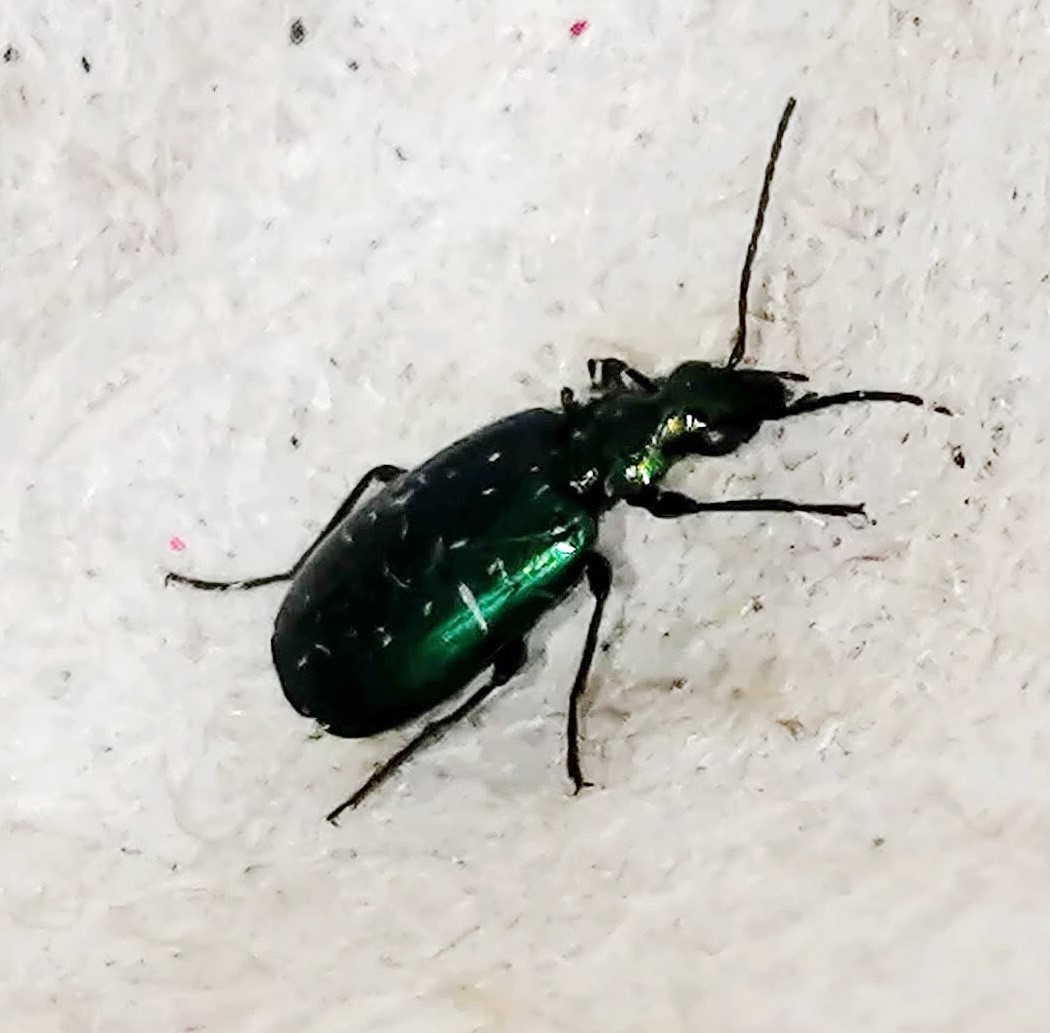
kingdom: Animalia
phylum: Arthropoda
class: Insecta
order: Coleoptera
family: Carabidae
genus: Lebia
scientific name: Lebia viridis
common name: Flower lebia beetle
